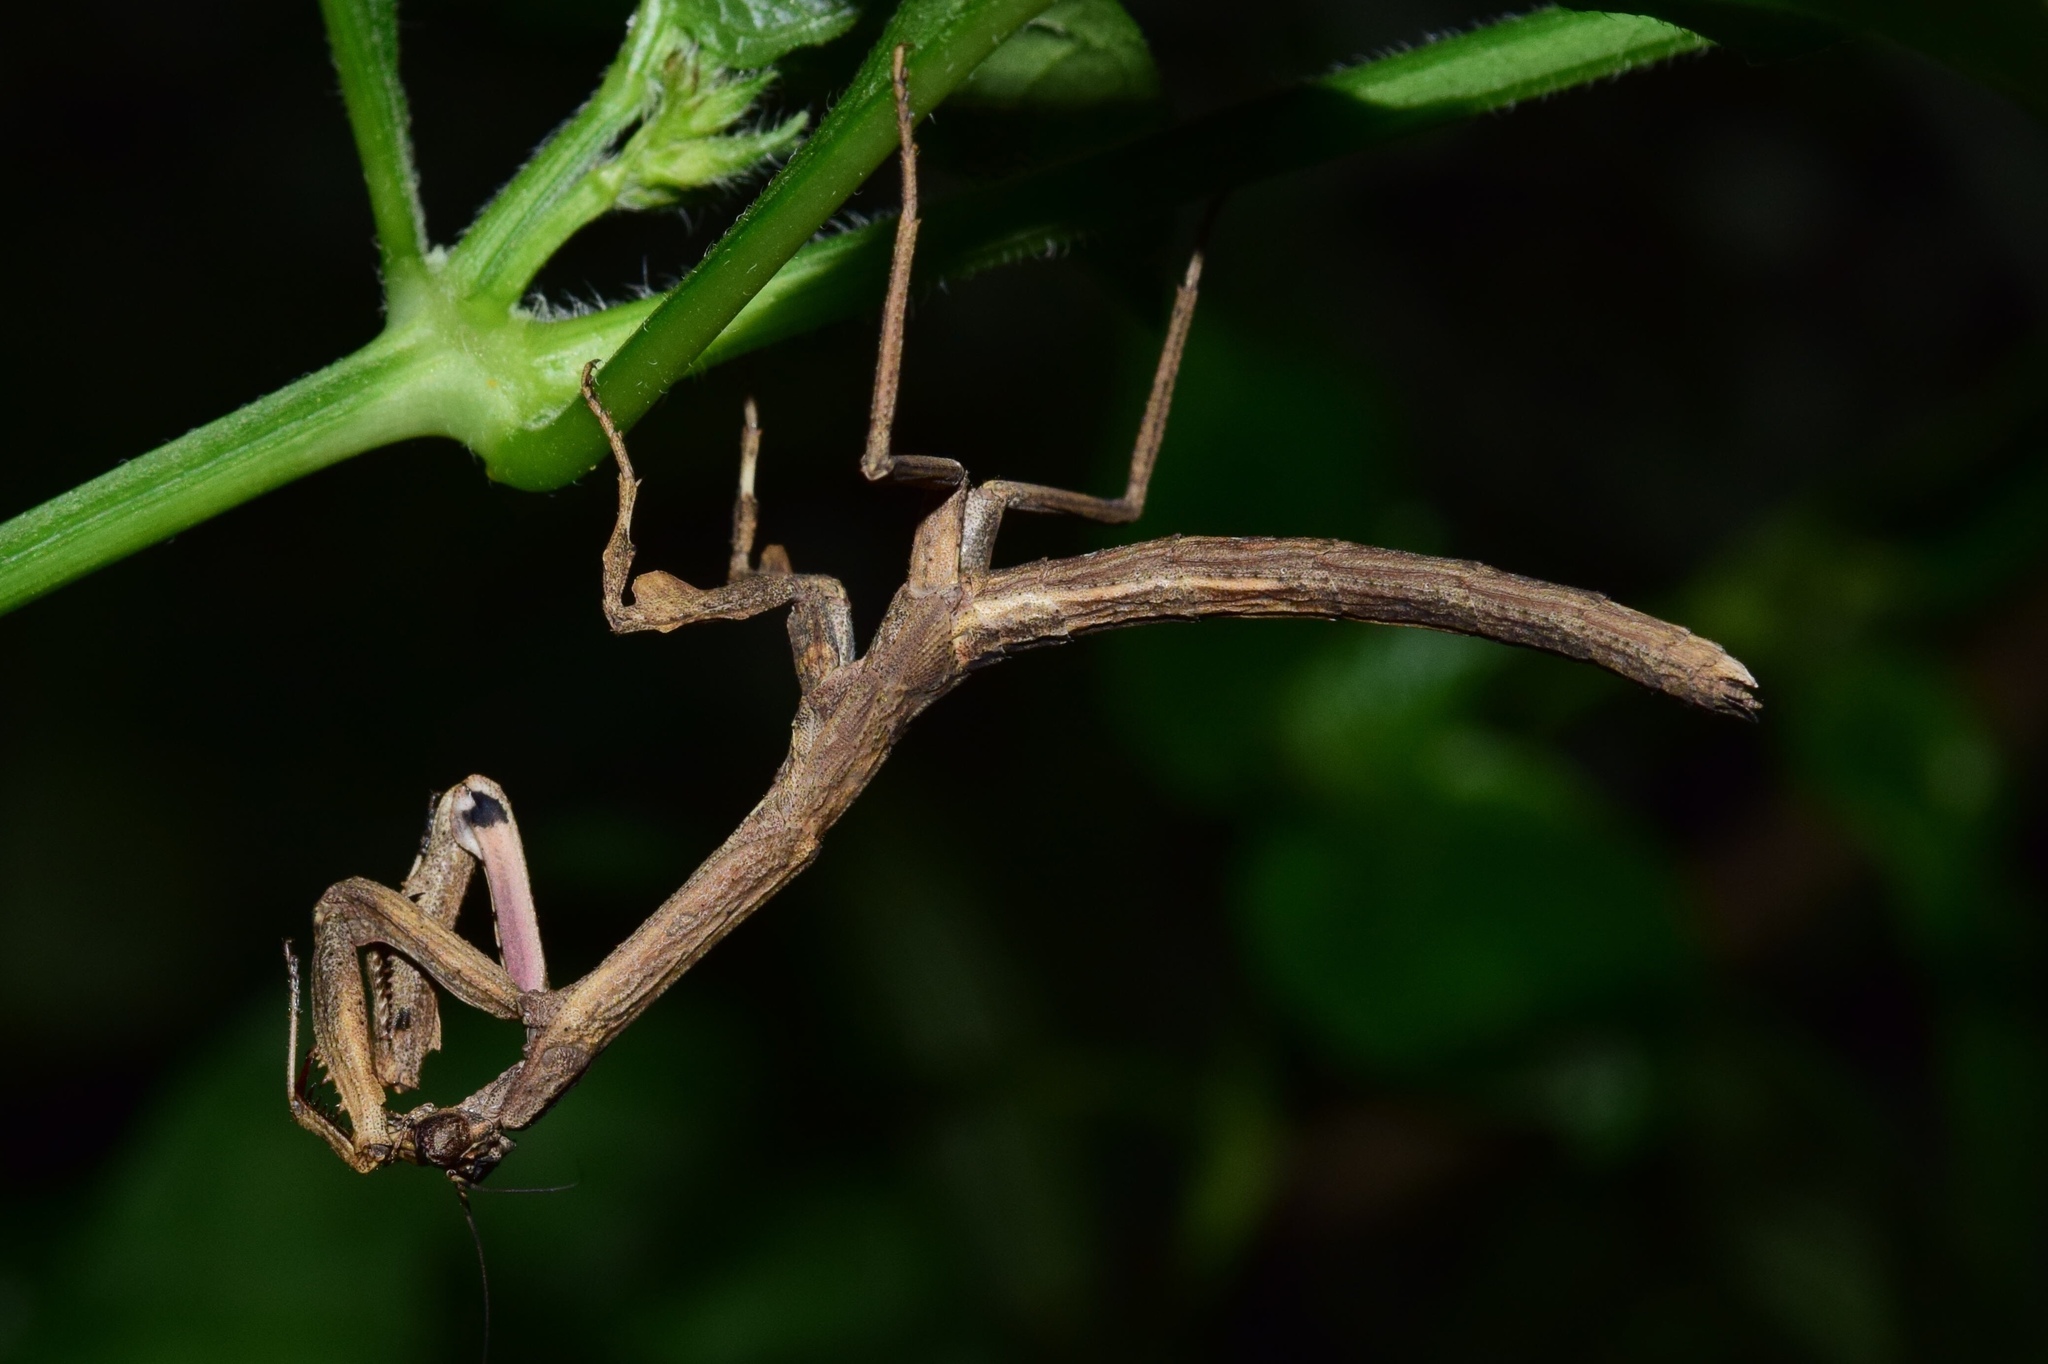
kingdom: Animalia
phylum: Arthropoda
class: Insecta
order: Mantodea
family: Deroplatyidae
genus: Popa
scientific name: Popa spurca
